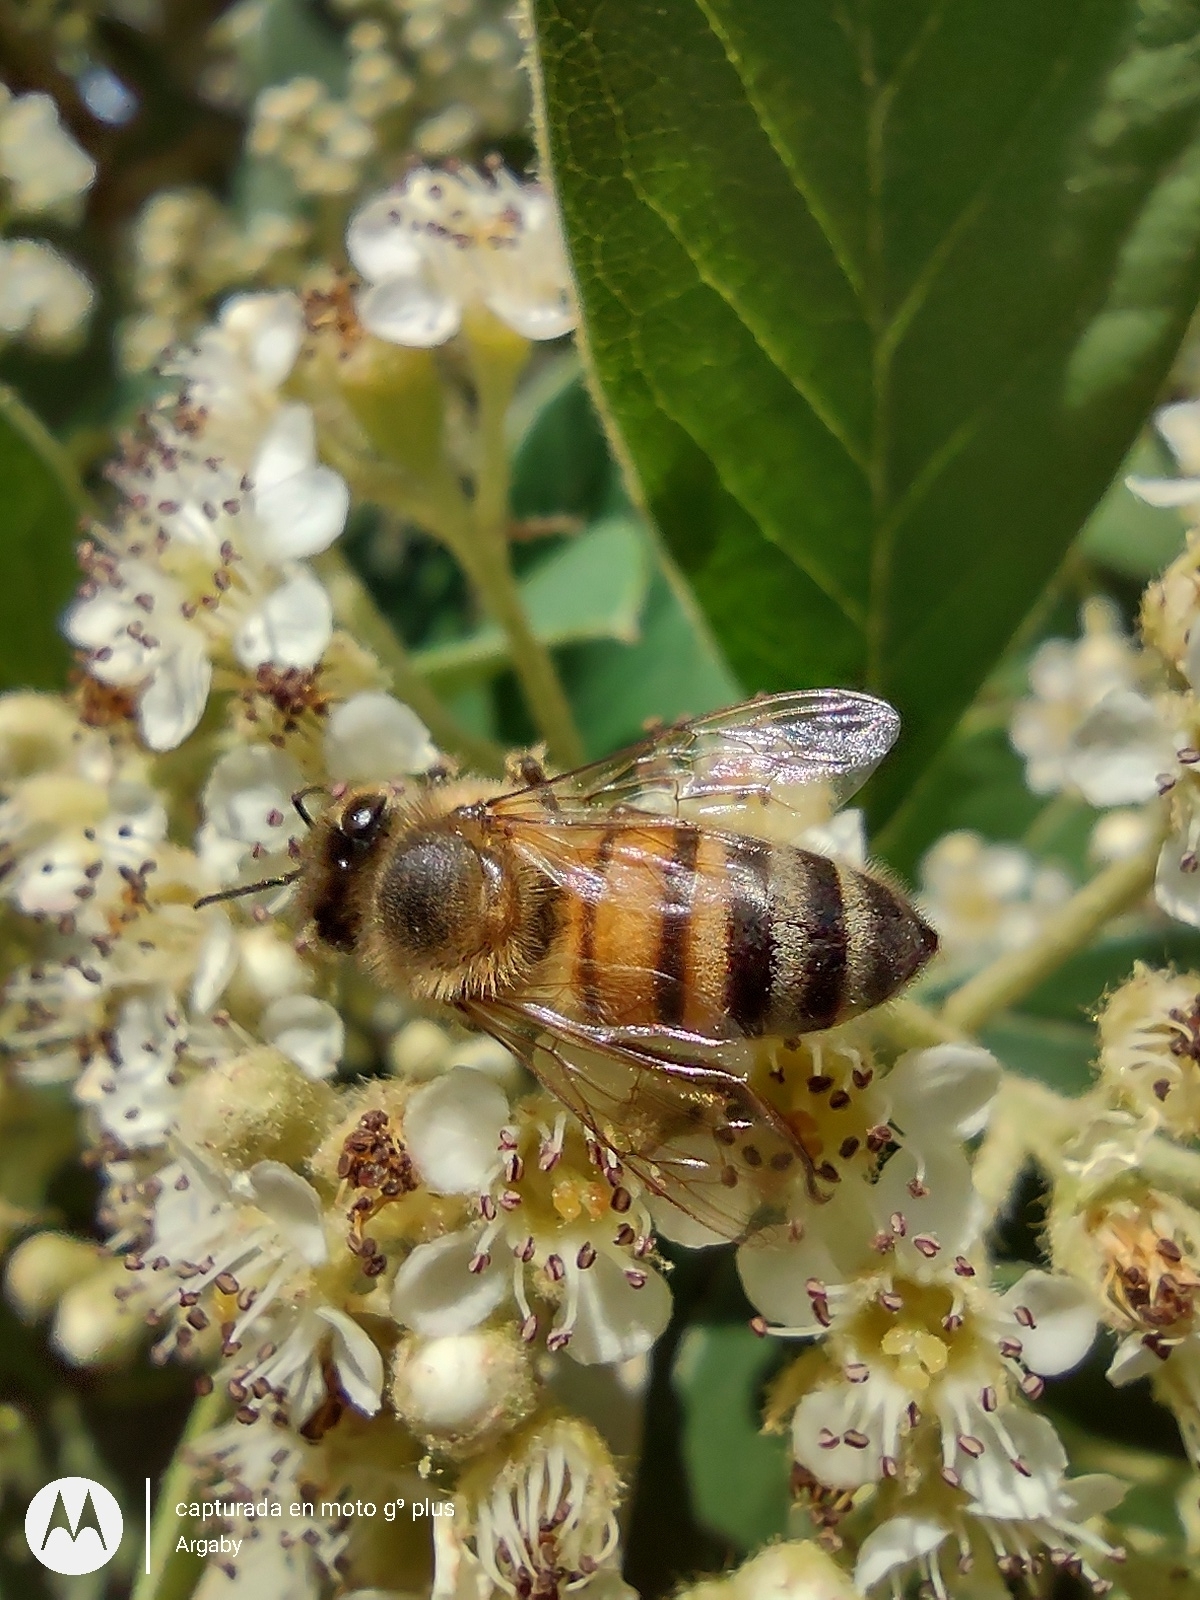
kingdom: Animalia
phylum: Arthropoda
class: Insecta
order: Hymenoptera
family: Apidae
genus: Apis
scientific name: Apis mellifera
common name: Honey bee
